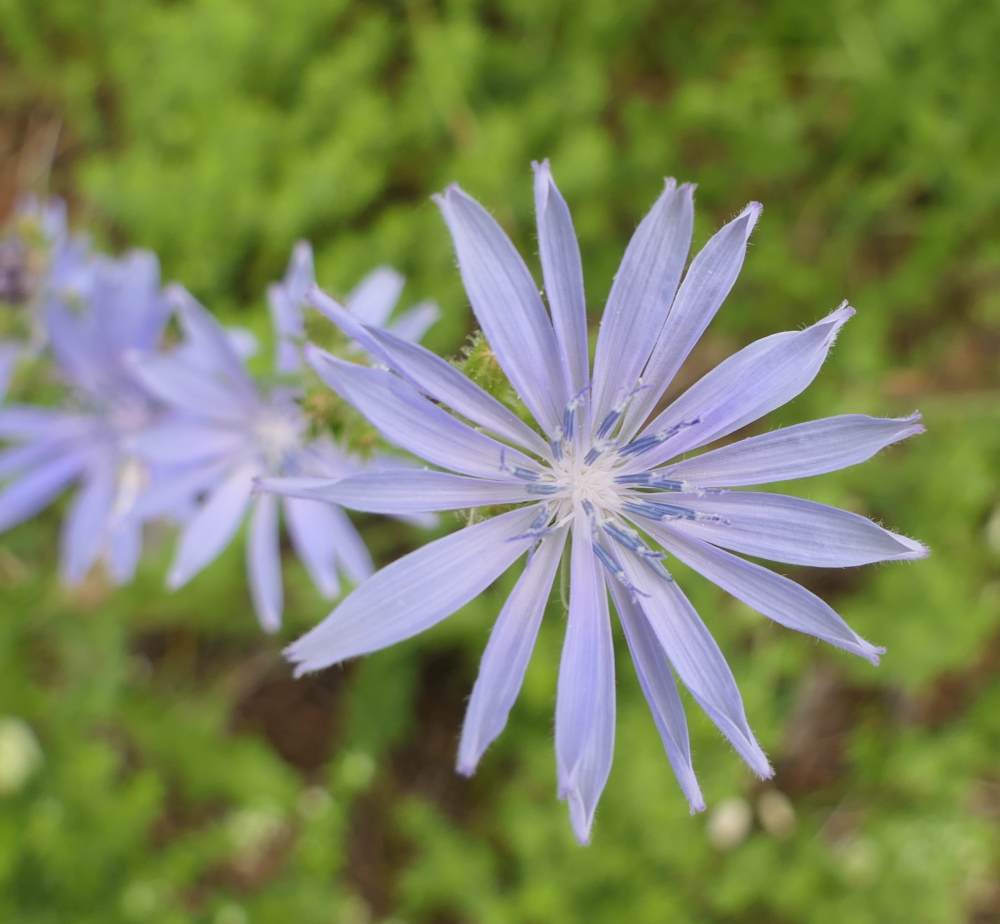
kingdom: Plantae
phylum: Tracheophyta
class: Magnoliopsida
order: Asterales
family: Asteraceae
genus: Cichorium
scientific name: Cichorium intybus
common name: Chicory
